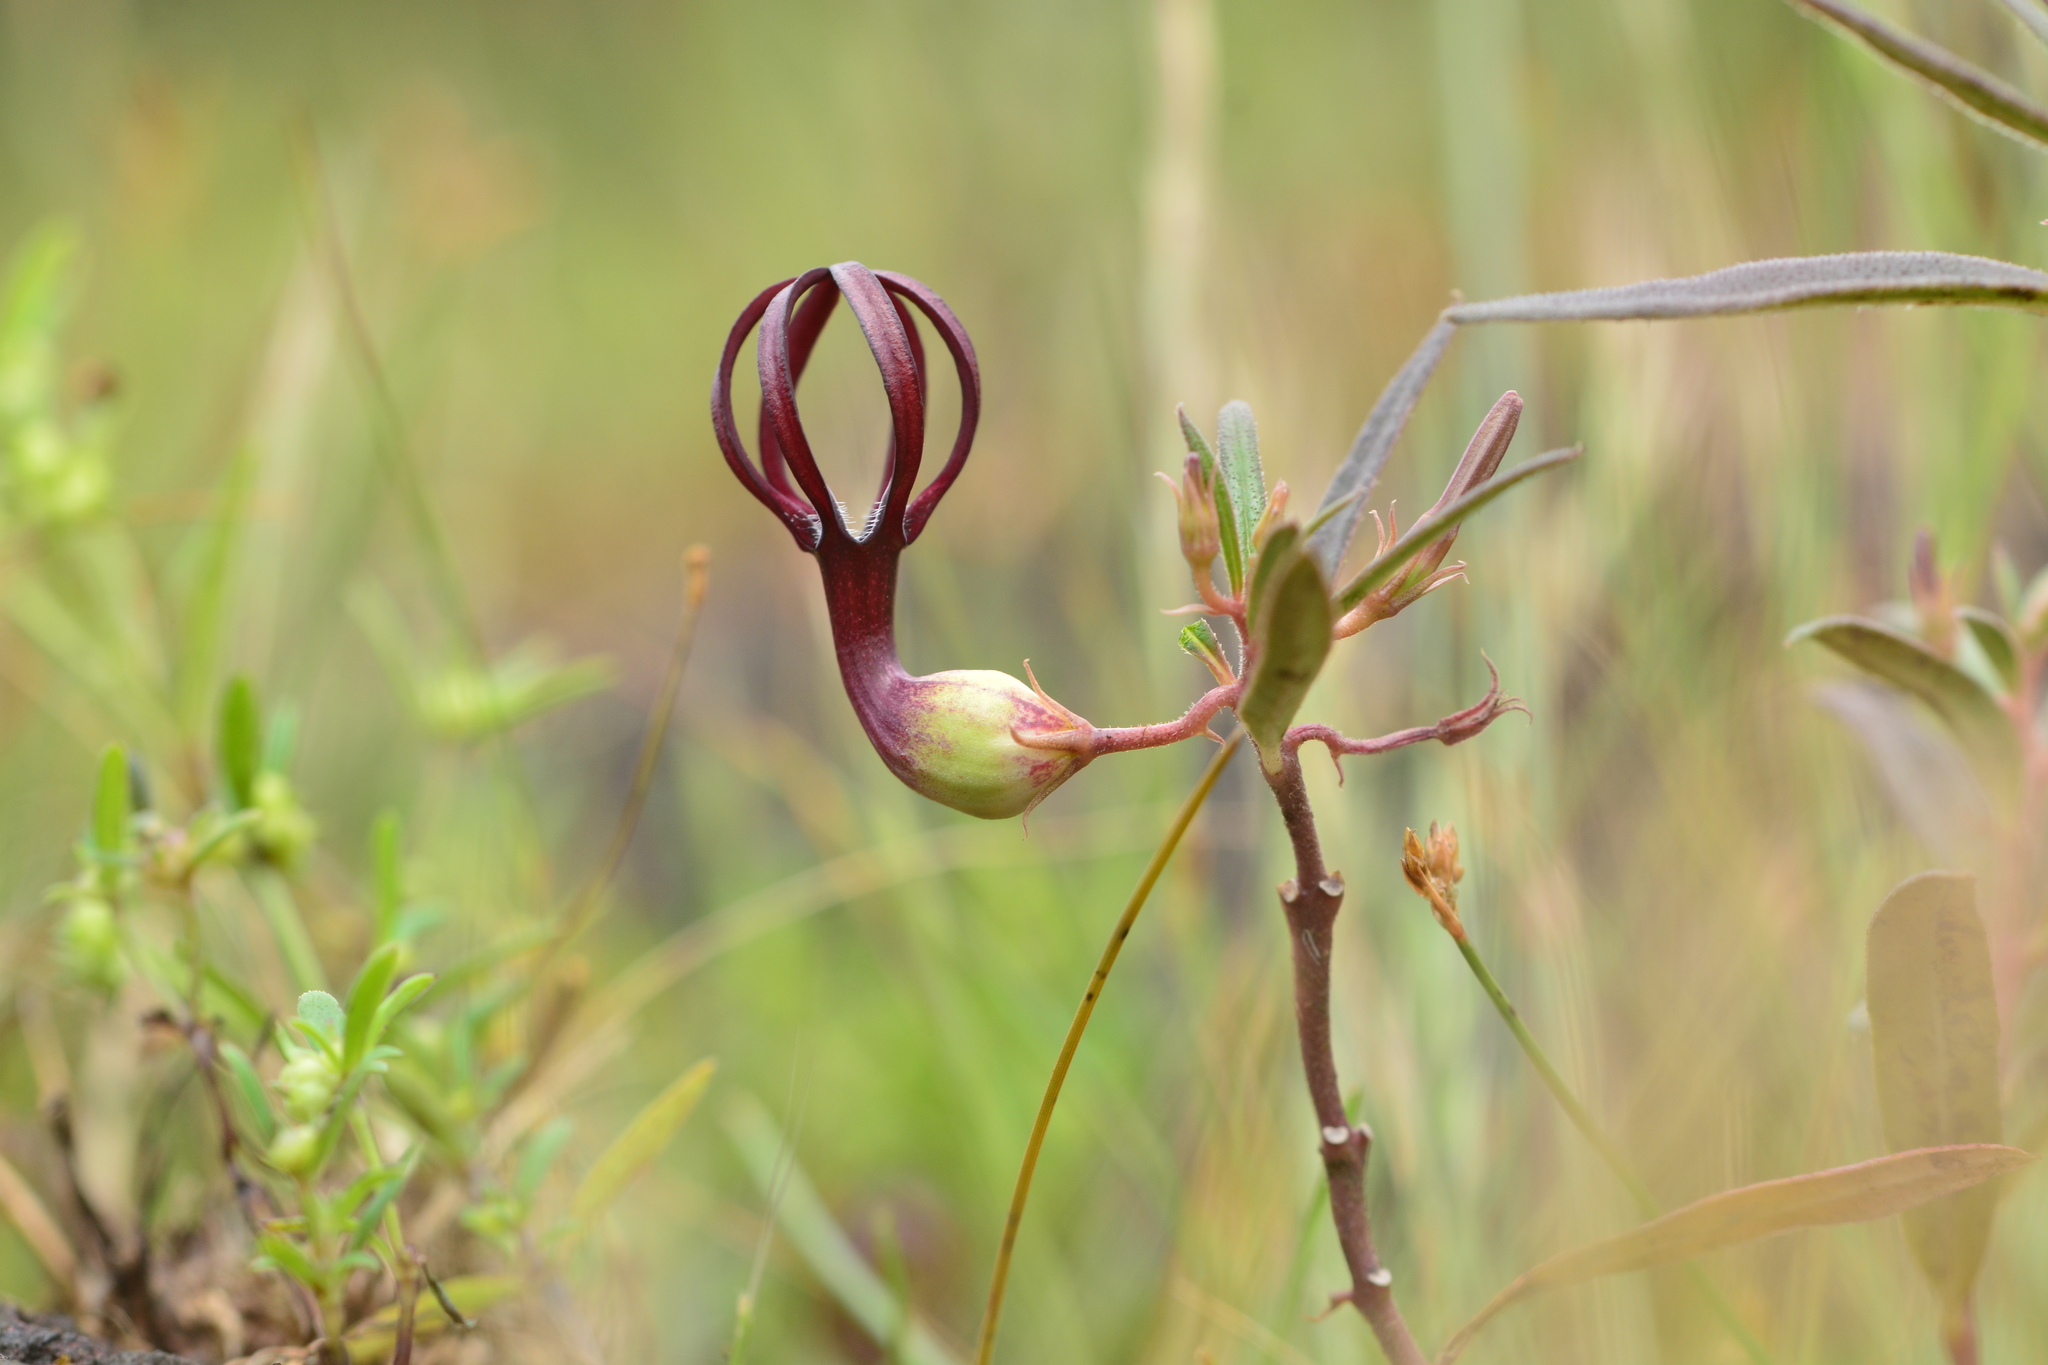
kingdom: Plantae
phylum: Tracheophyta
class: Magnoliopsida
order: Gentianales
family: Apocynaceae
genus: Ceropegia
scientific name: Ceropegia jainii
